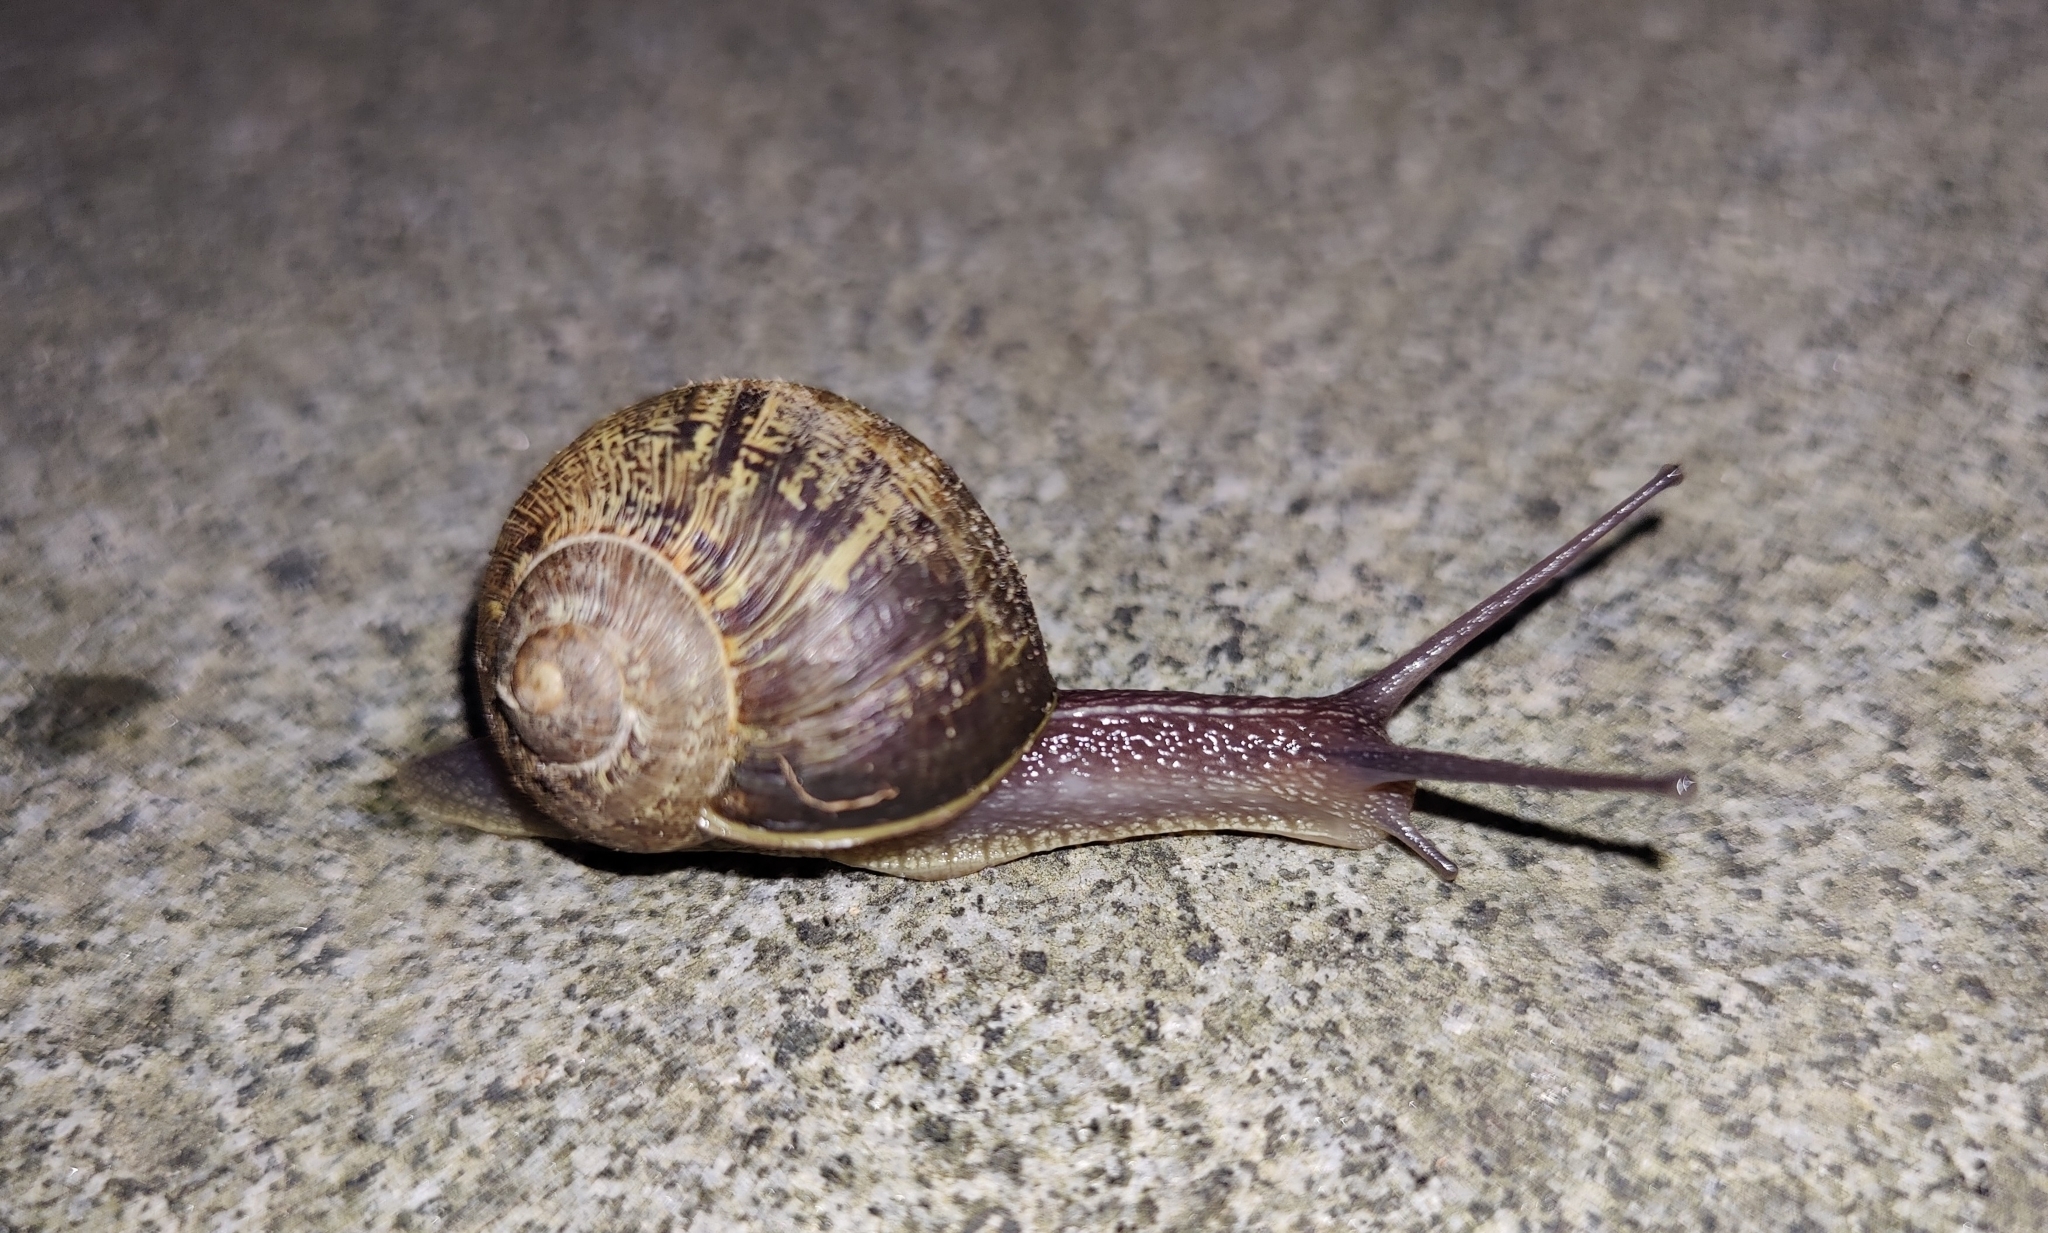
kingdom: Animalia
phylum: Mollusca
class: Gastropoda
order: Stylommatophora
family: Helicidae
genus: Cornu
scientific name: Cornu aspersum
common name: Brown garden snail
